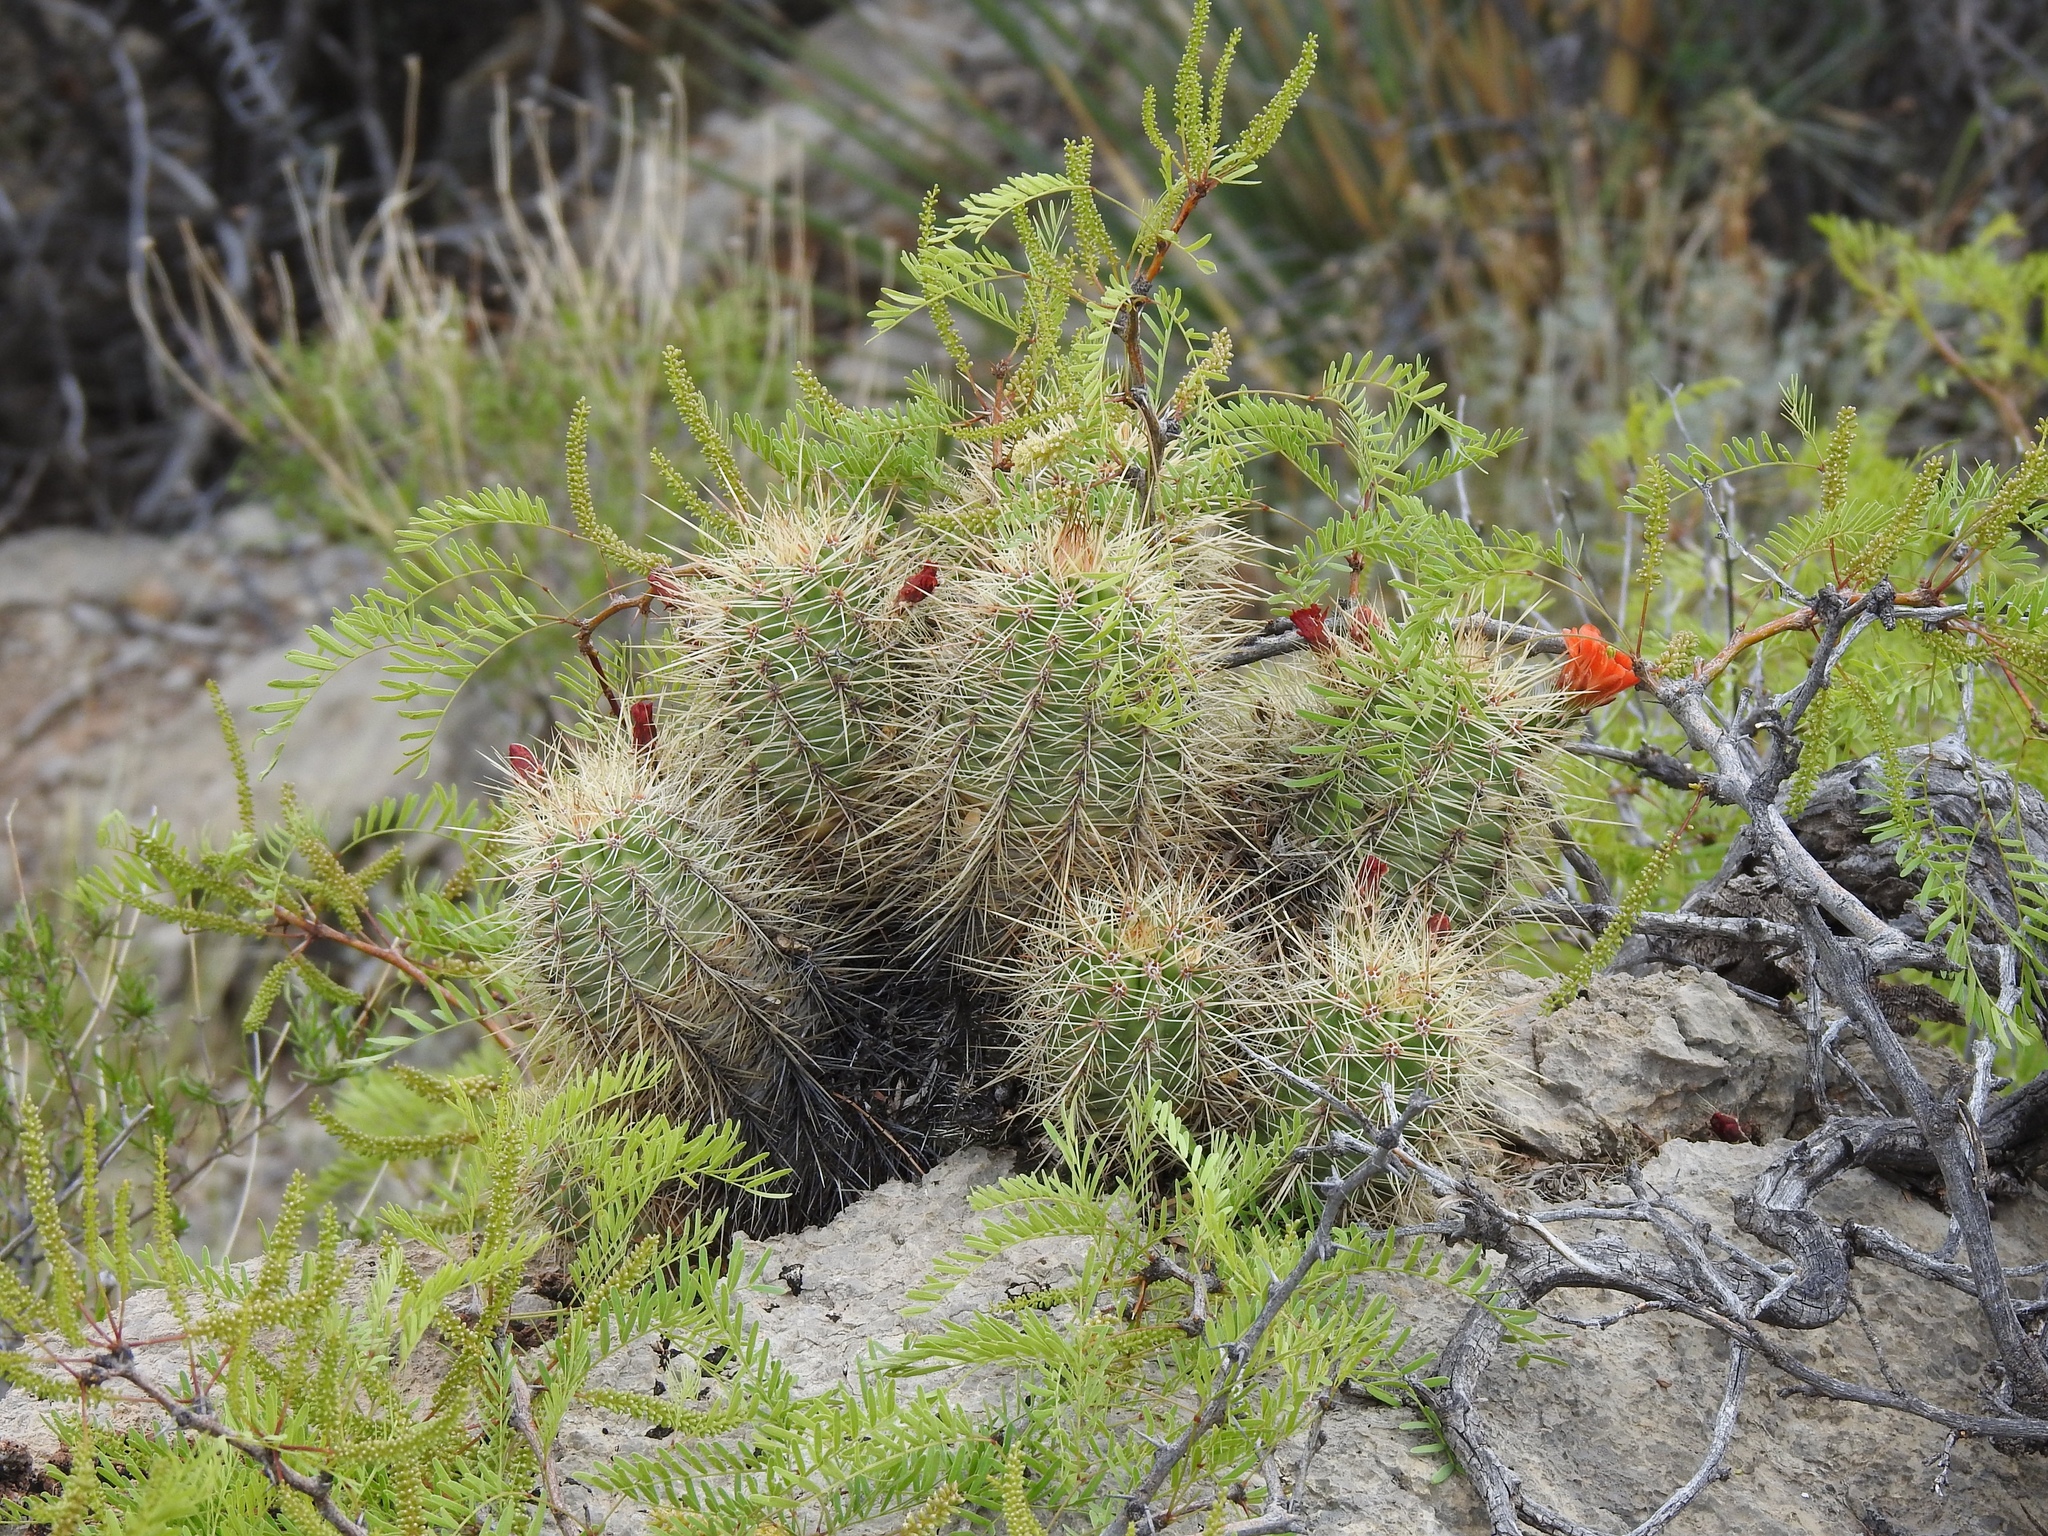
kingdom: Plantae
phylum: Tracheophyta
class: Magnoliopsida
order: Caryophyllales
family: Cactaceae
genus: Echinocereus
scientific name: Echinocereus coccineus
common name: Scarlet hedgehog cactus
